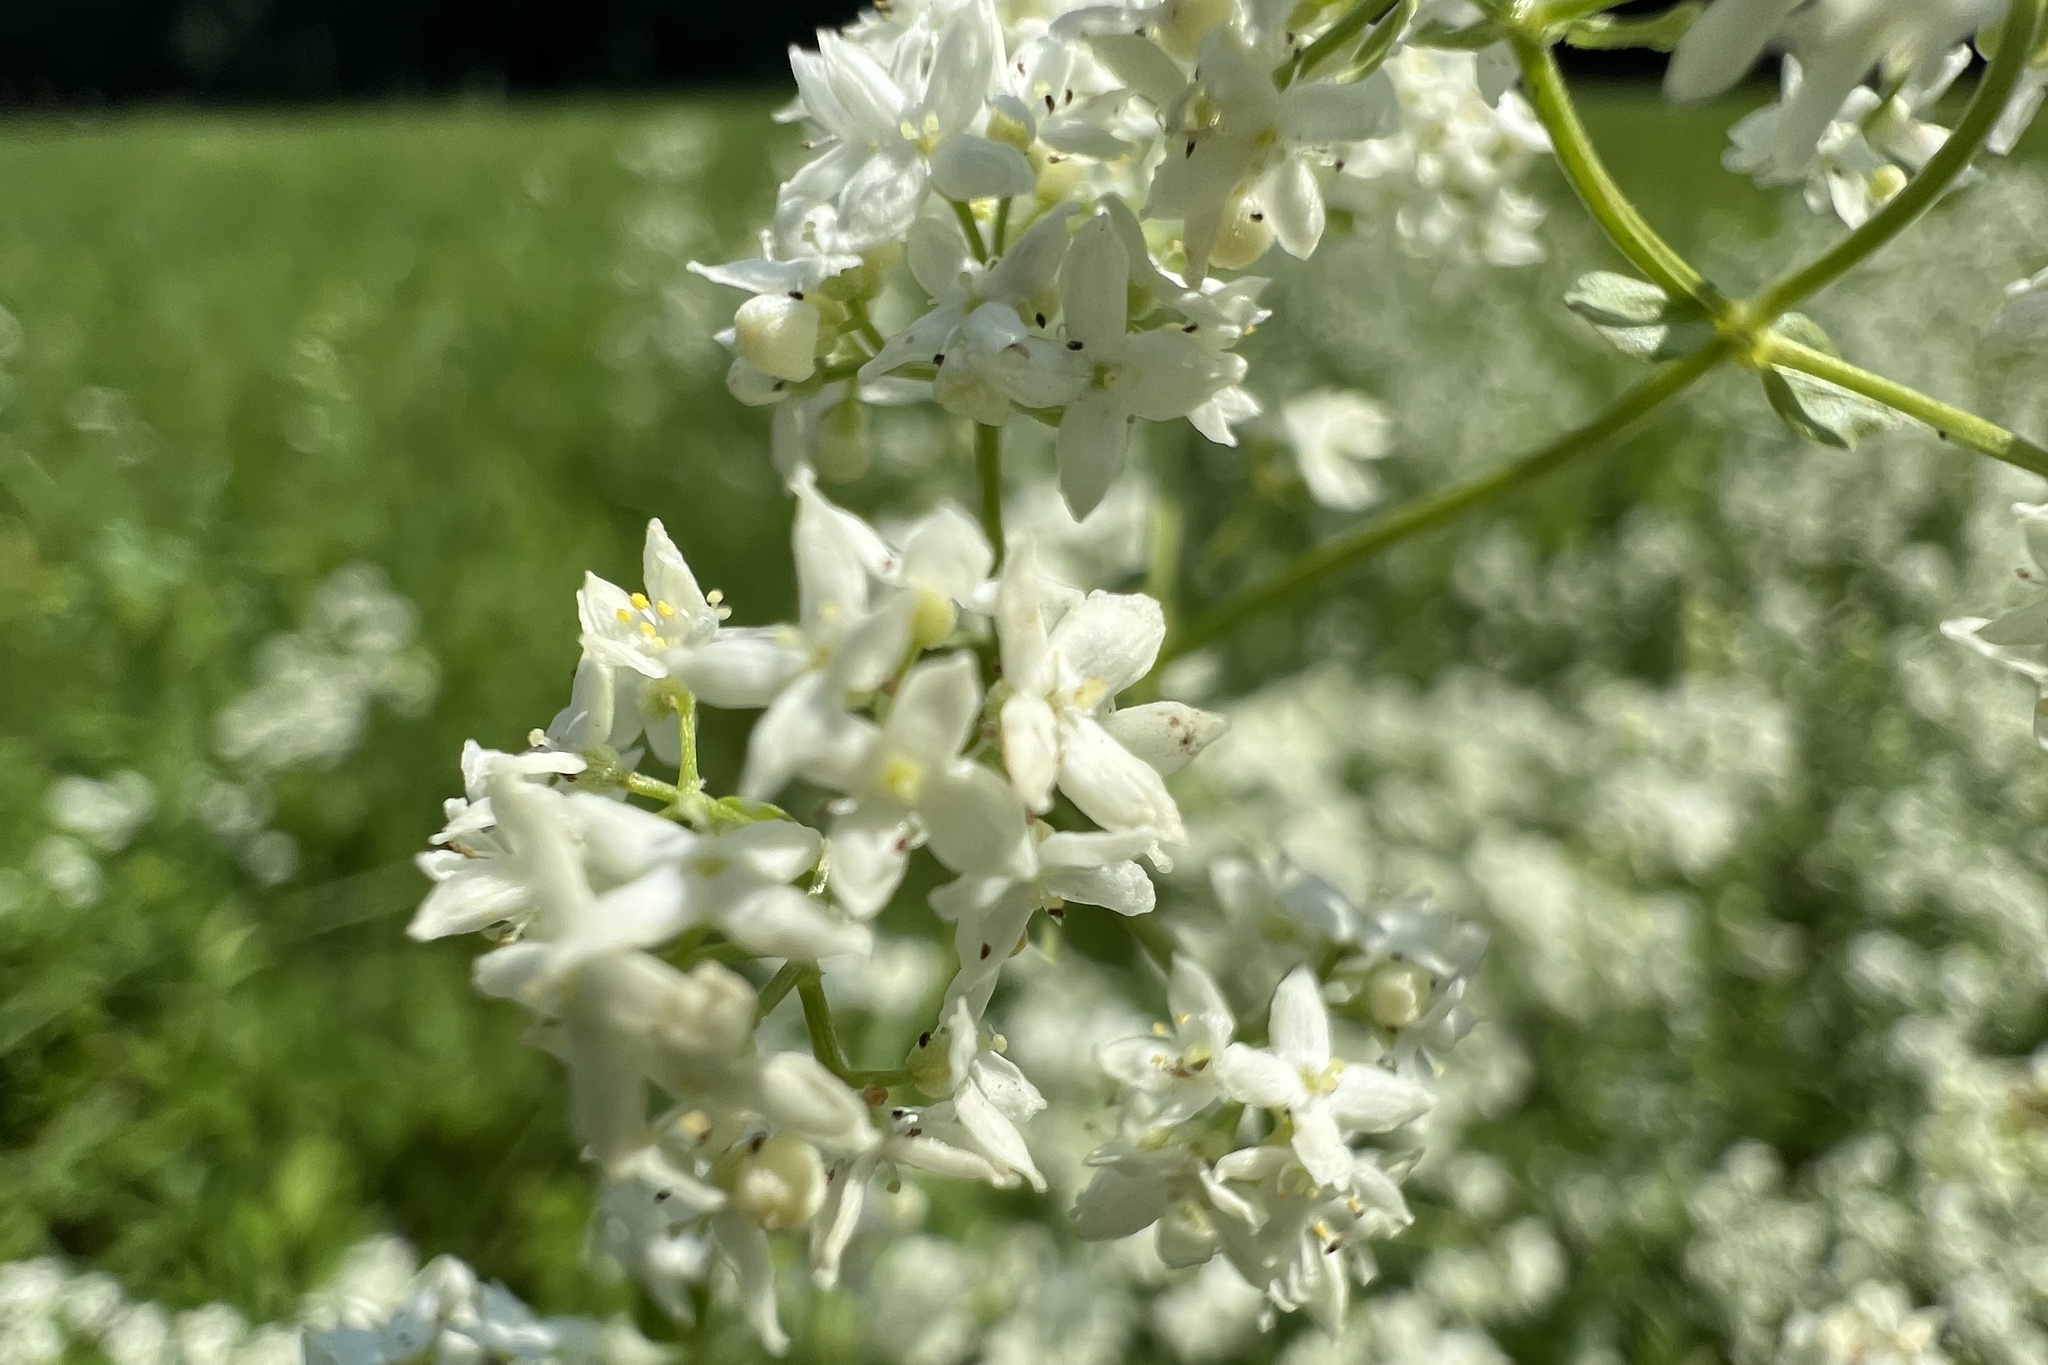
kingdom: Plantae
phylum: Tracheophyta
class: Magnoliopsida
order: Gentianales
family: Rubiaceae
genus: Galium
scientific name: Galium boreale
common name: Northern bedstraw
